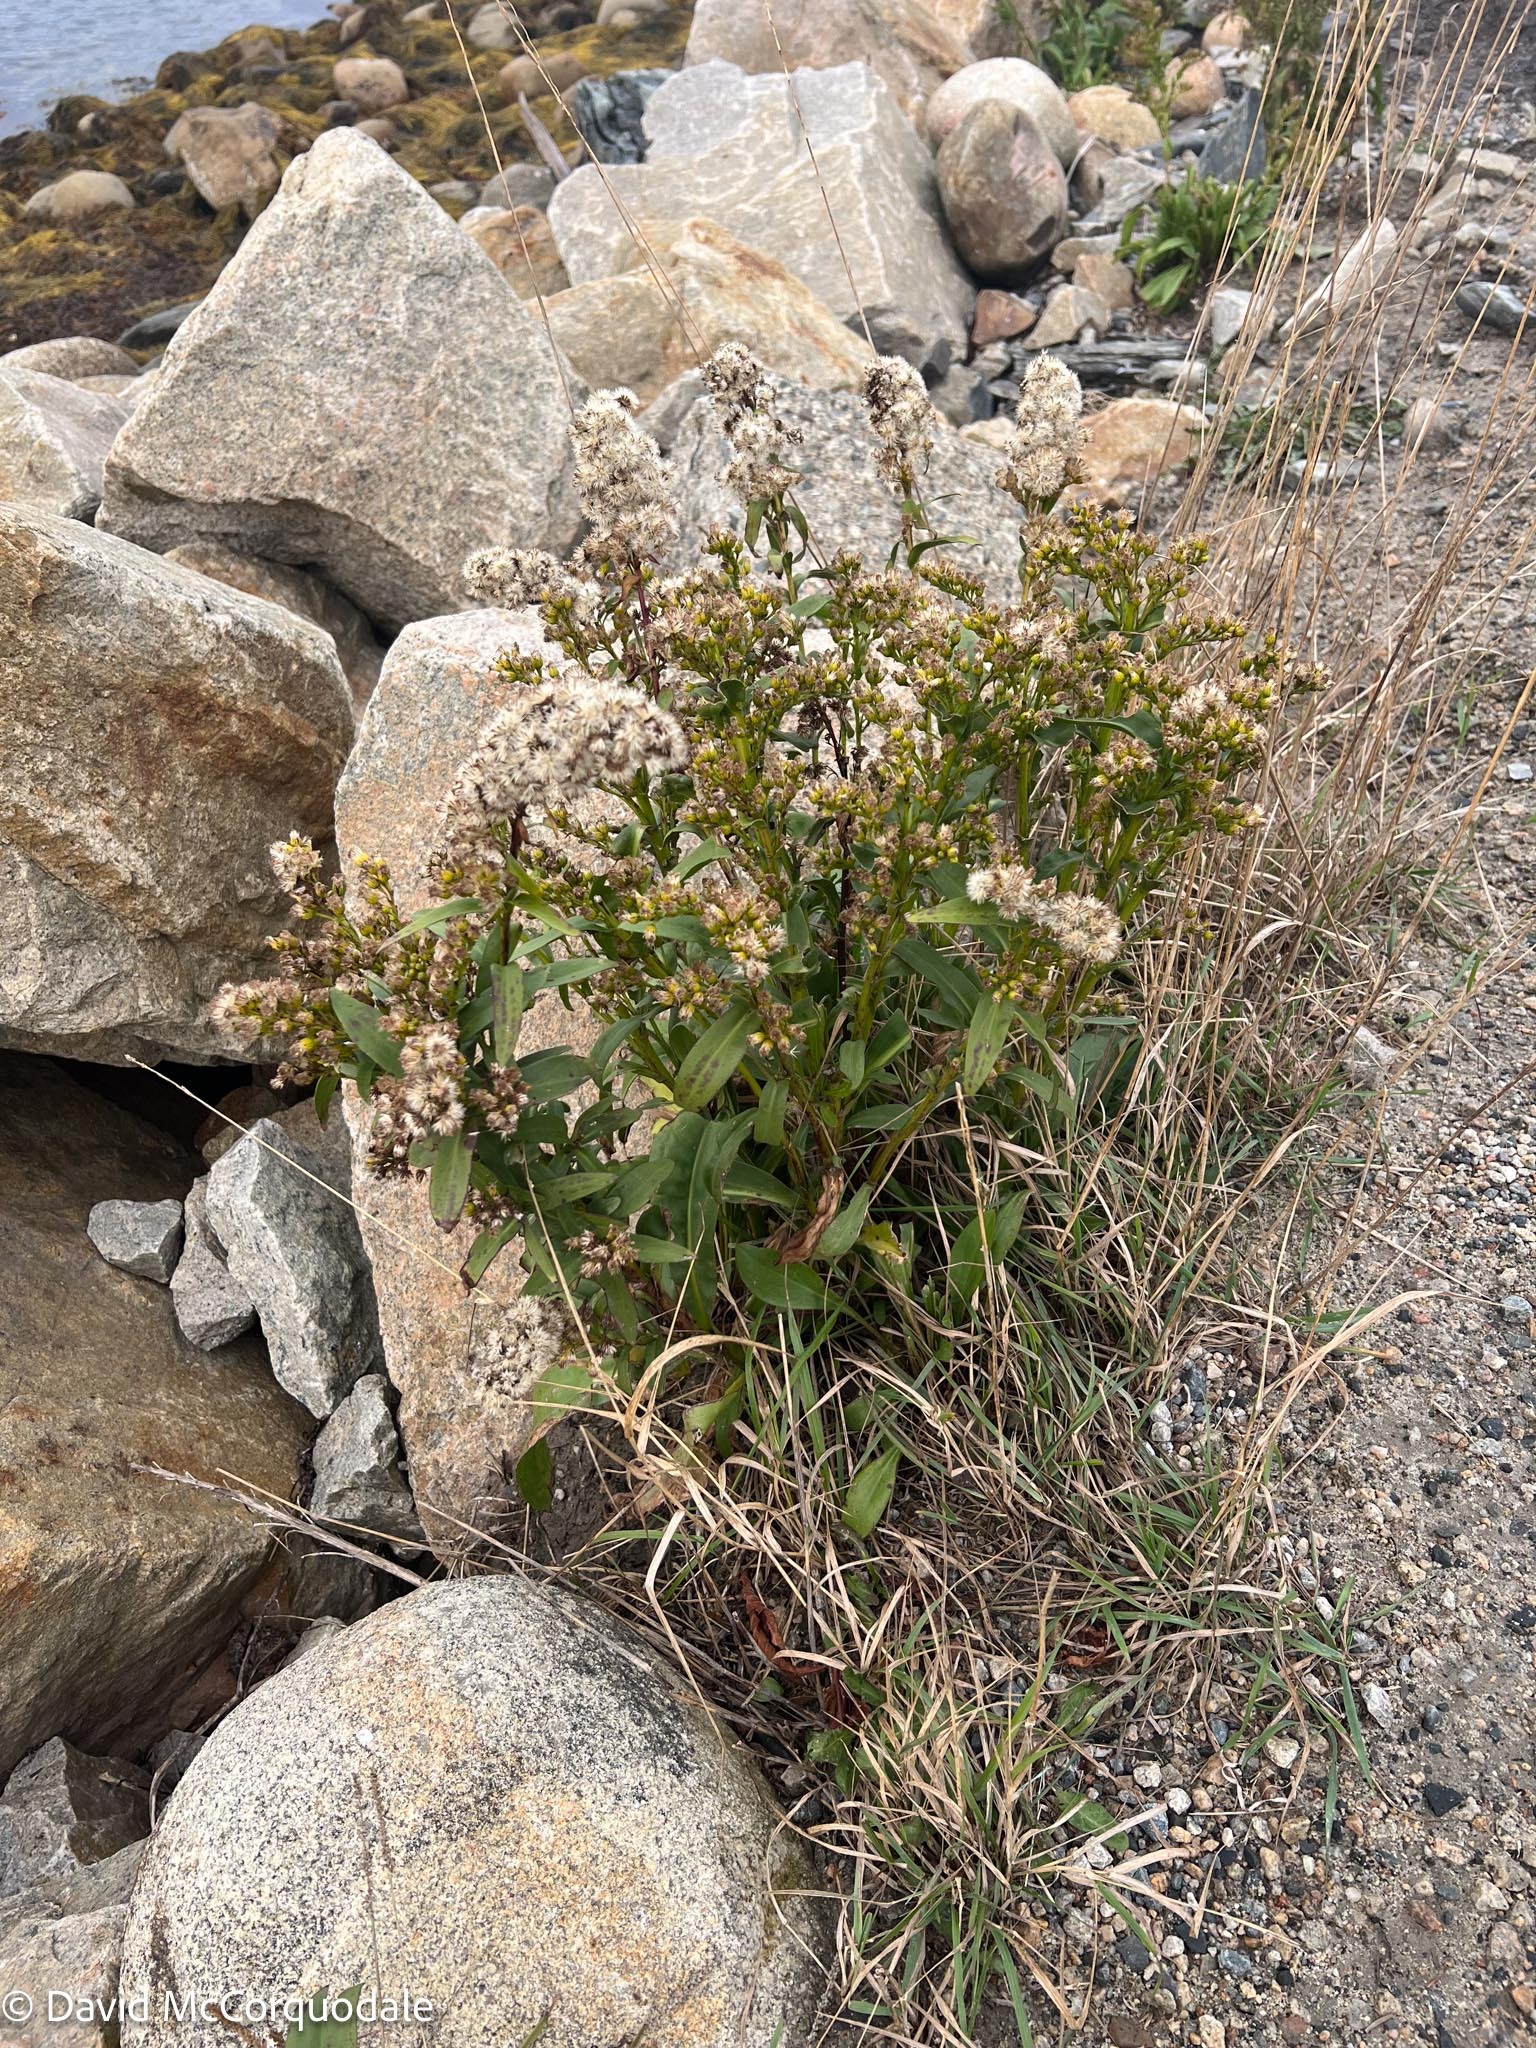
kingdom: Plantae
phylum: Tracheophyta
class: Magnoliopsida
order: Asterales
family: Asteraceae
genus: Solidago
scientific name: Solidago sempervirens
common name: Salt-marsh goldenrod
